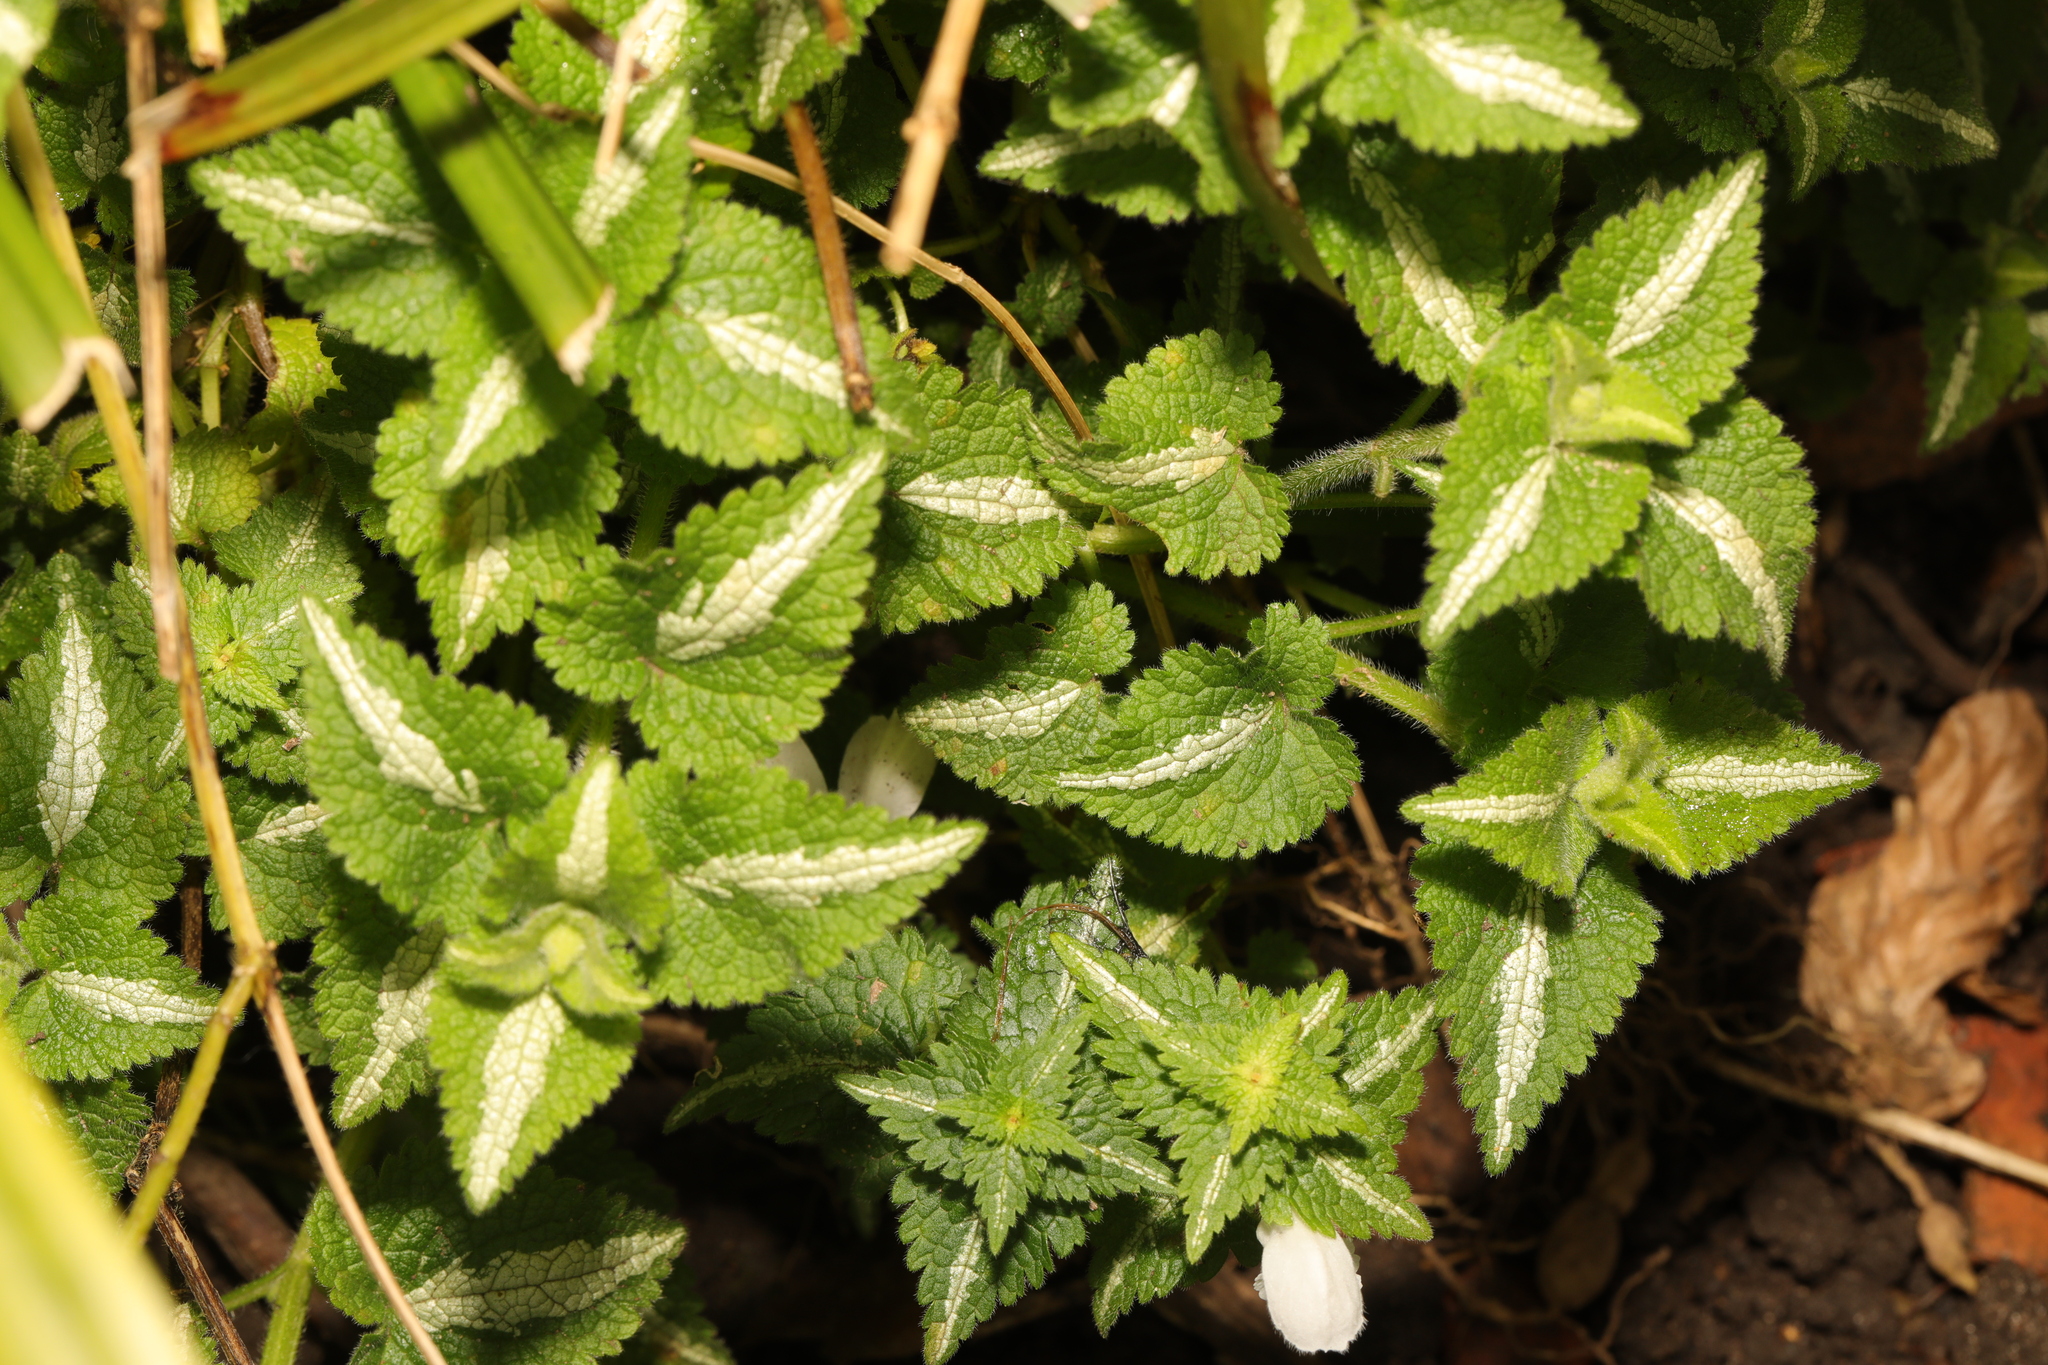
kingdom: Plantae
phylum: Tracheophyta
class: Magnoliopsida
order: Lamiales
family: Lamiaceae
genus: Lamium
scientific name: Lamium maculatum
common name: Spotted dead-nettle
